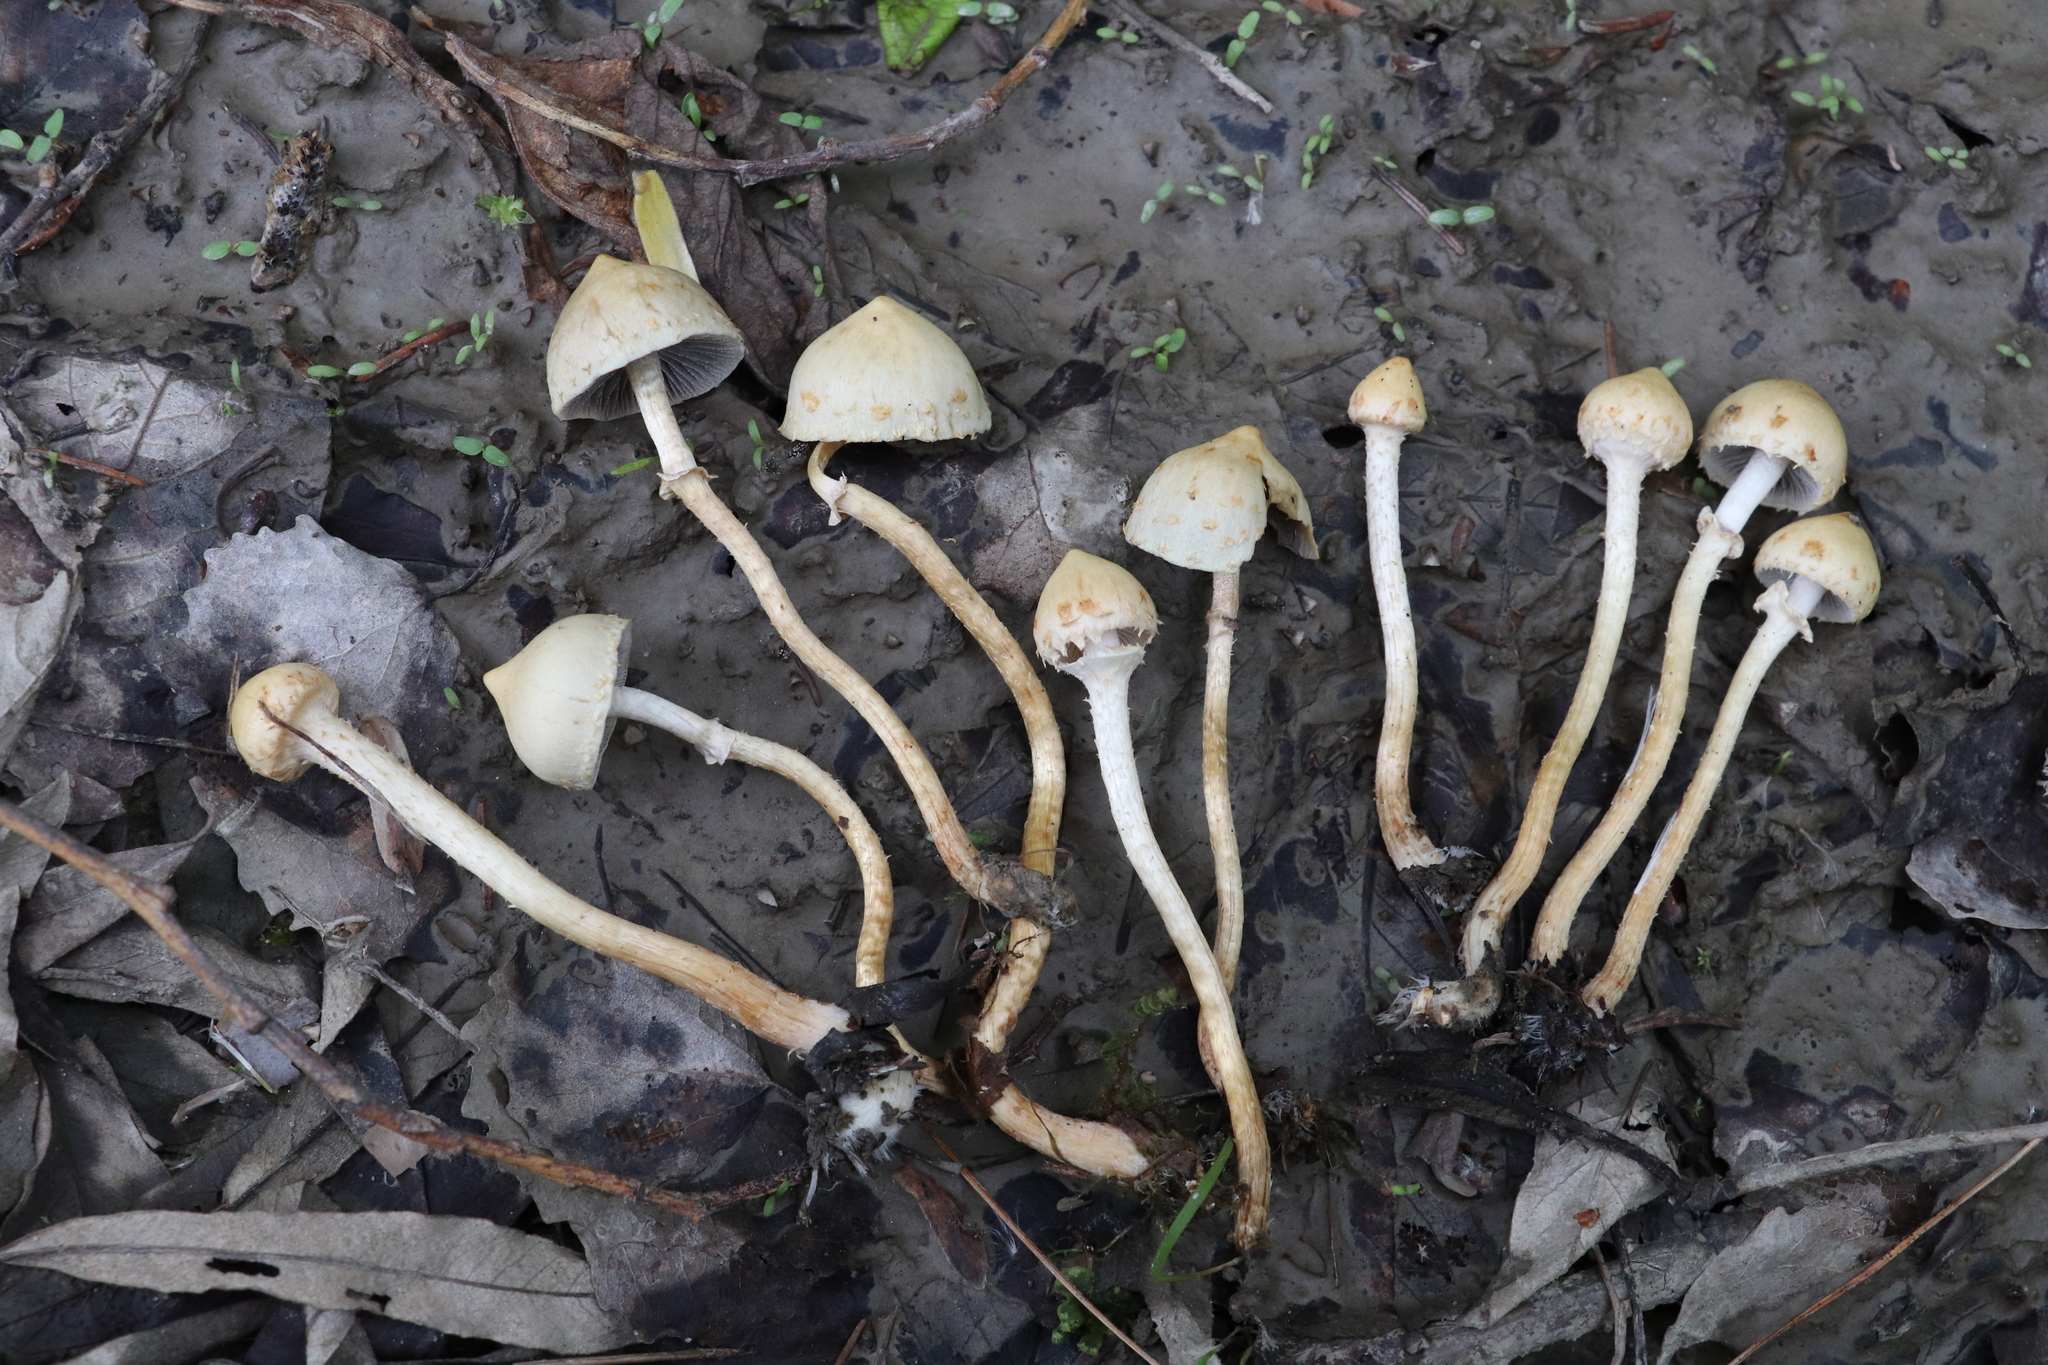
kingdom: Fungi
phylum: Basidiomycota
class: Agaricomycetes
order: Agaricales
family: Strophariaceae
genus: Leratiomyces
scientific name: Leratiomyces magnivelaris
